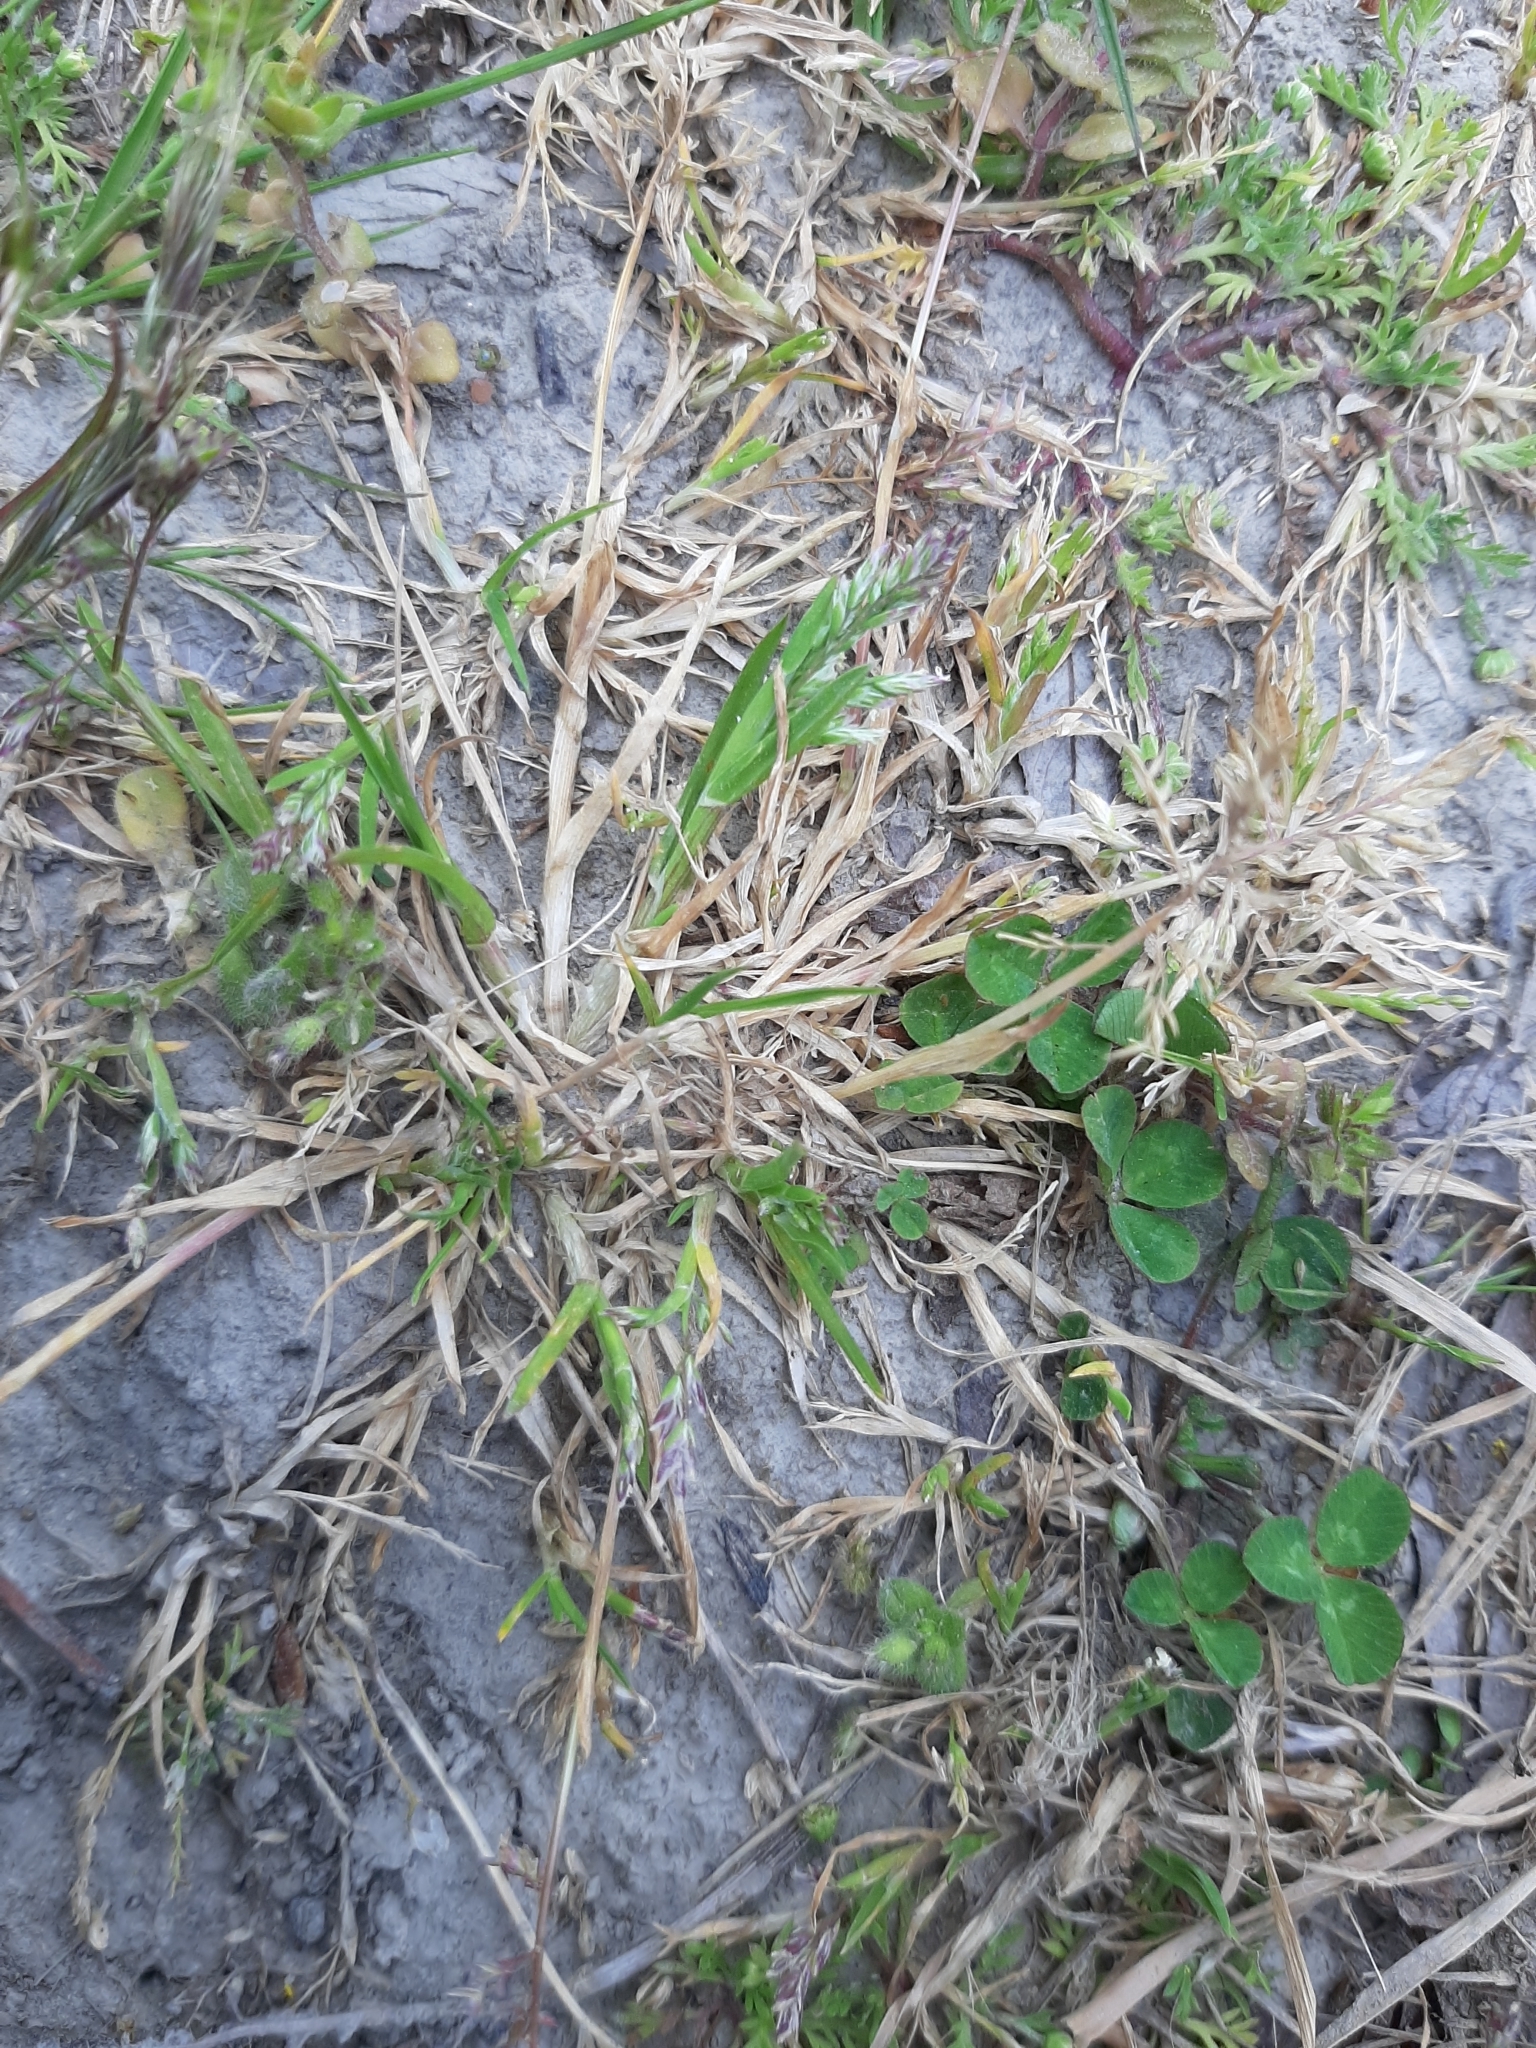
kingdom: Plantae
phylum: Tracheophyta
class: Liliopsida
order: Poales
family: Poaceae
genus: Poa
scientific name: Poa annua
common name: Annual bluegrass
